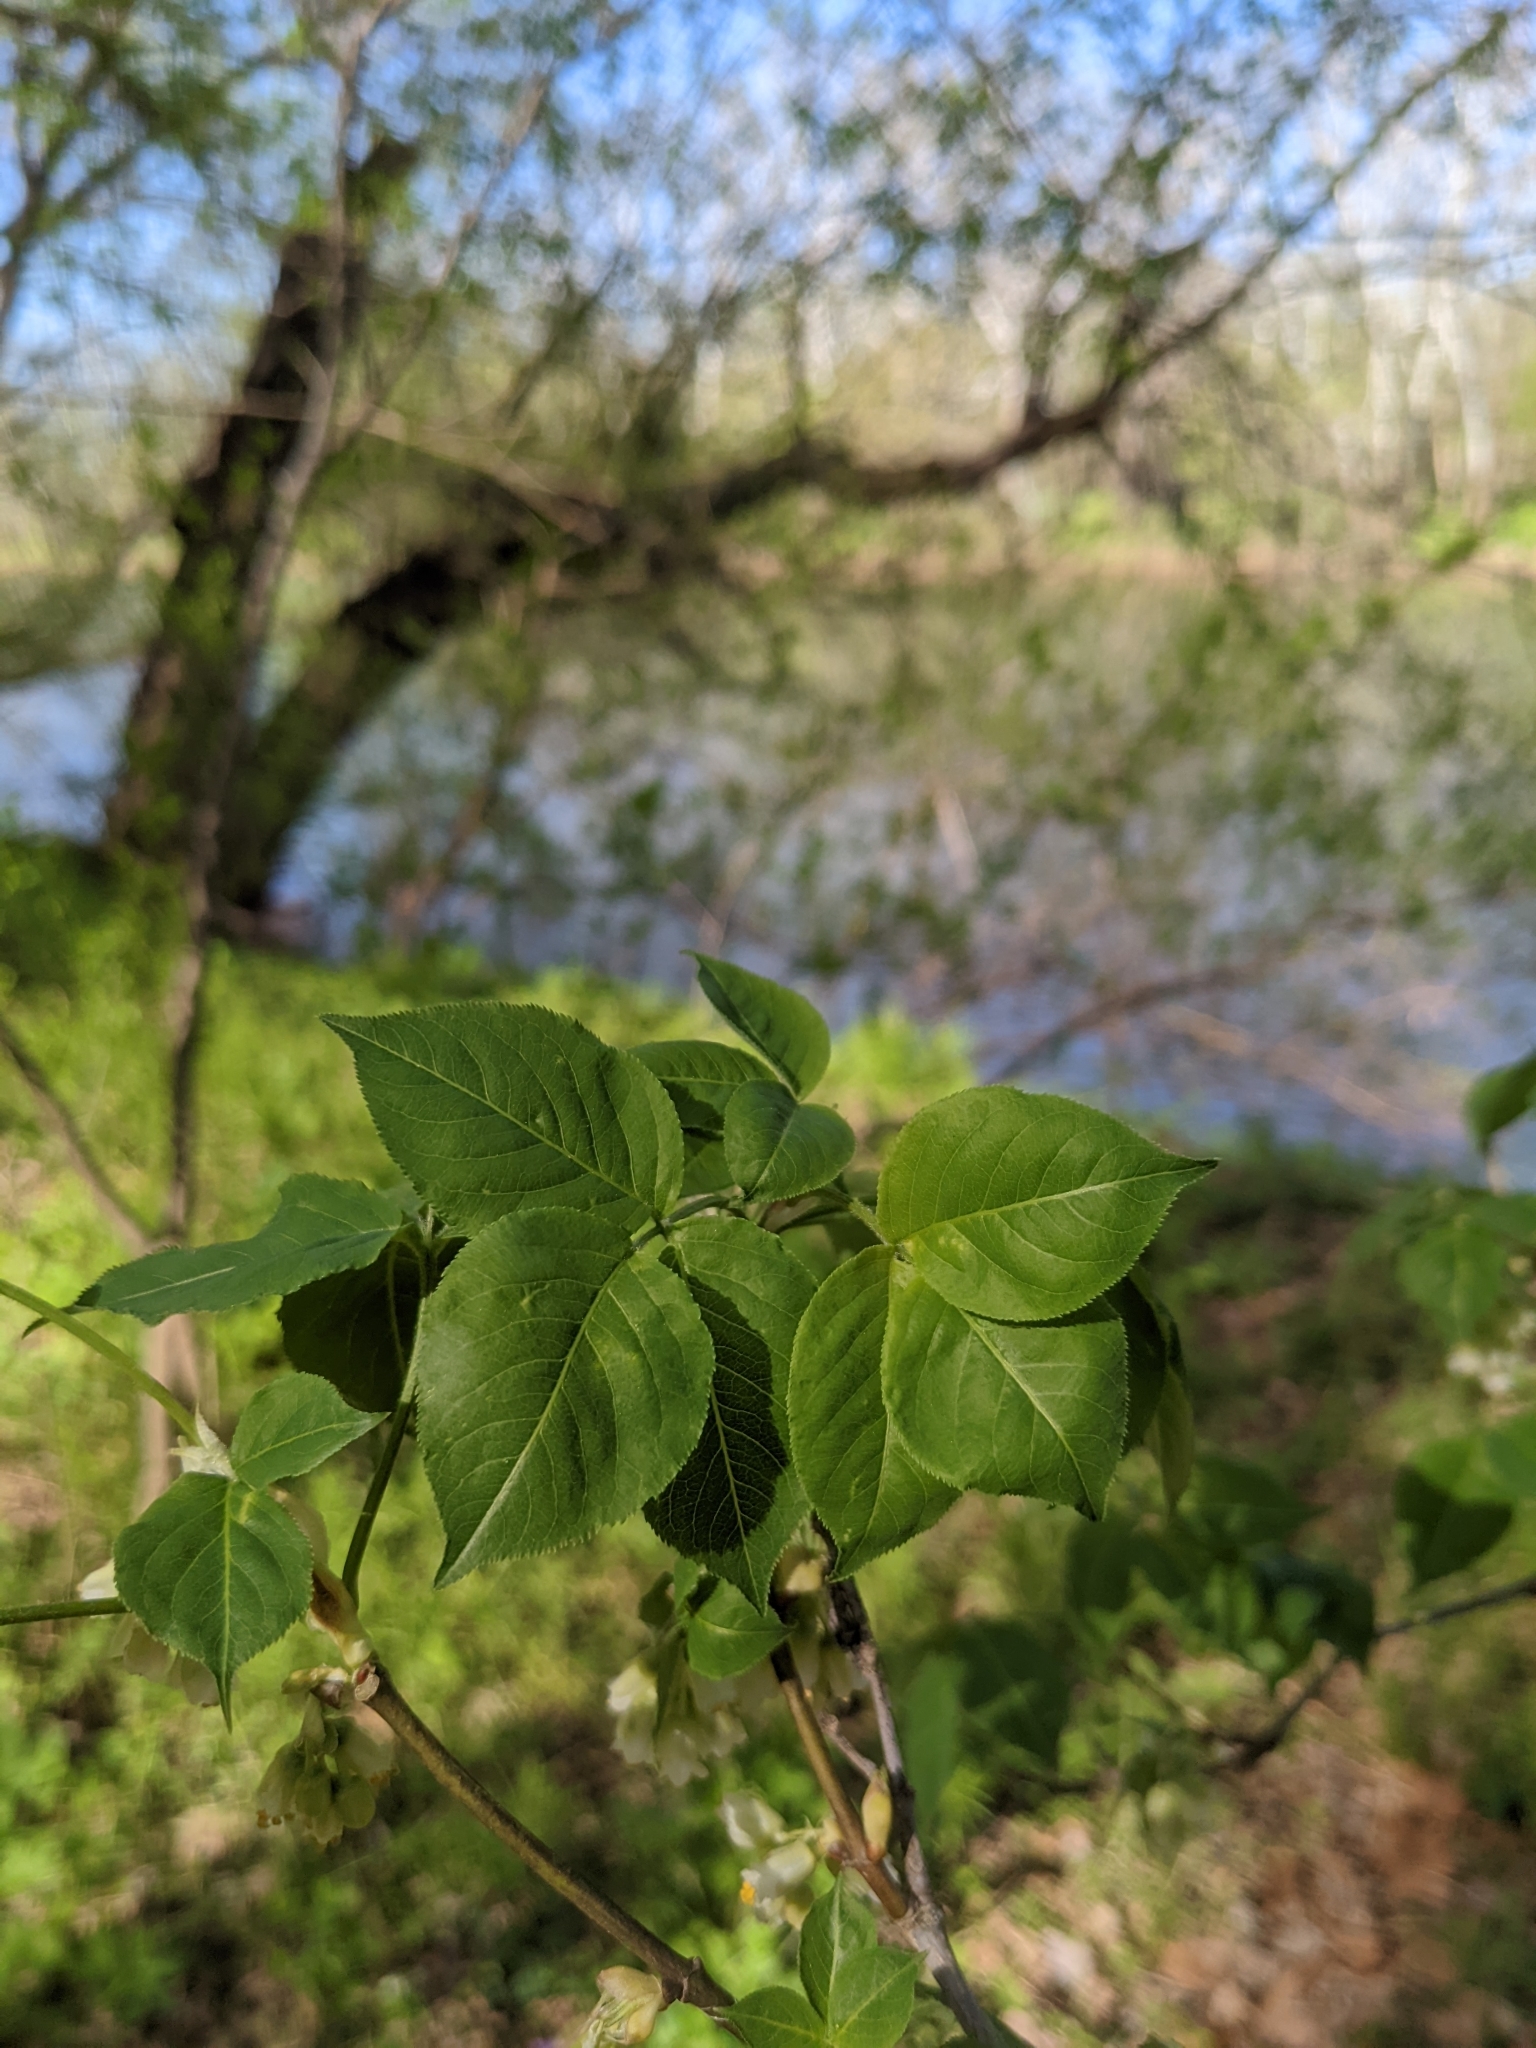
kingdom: Plantae
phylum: Tracheophyta
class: Magnoliopsida
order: Crossosomatales
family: Staphyleaceae
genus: Staphylea
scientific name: Staphylea trifolia
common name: American bladdernut
